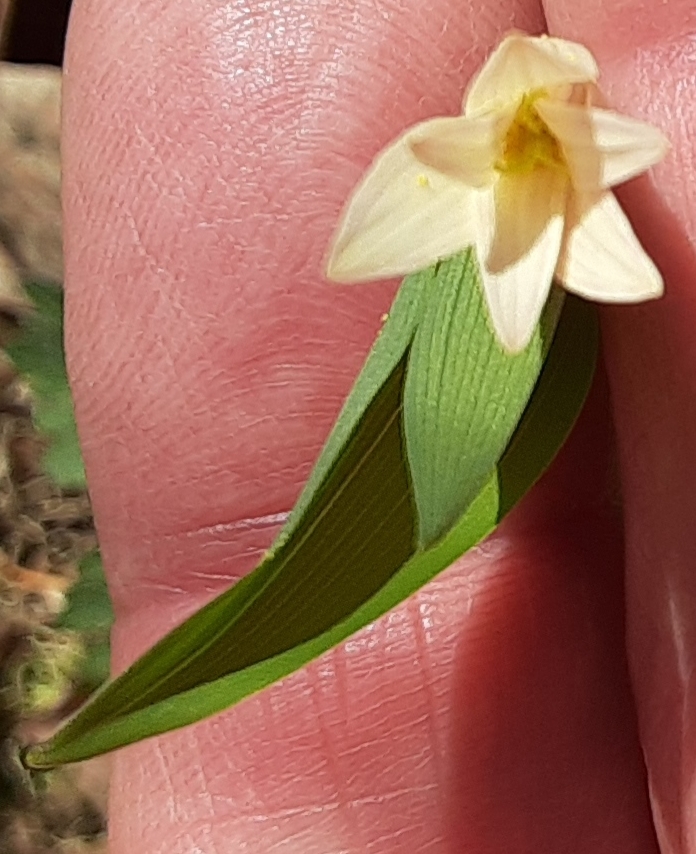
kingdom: Plantae
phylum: Tracheophyta
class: Liliopsida
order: Liliales
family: Colchicaceae
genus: Uvularia
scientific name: Uvularia sessilifolia
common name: Straw-lily
